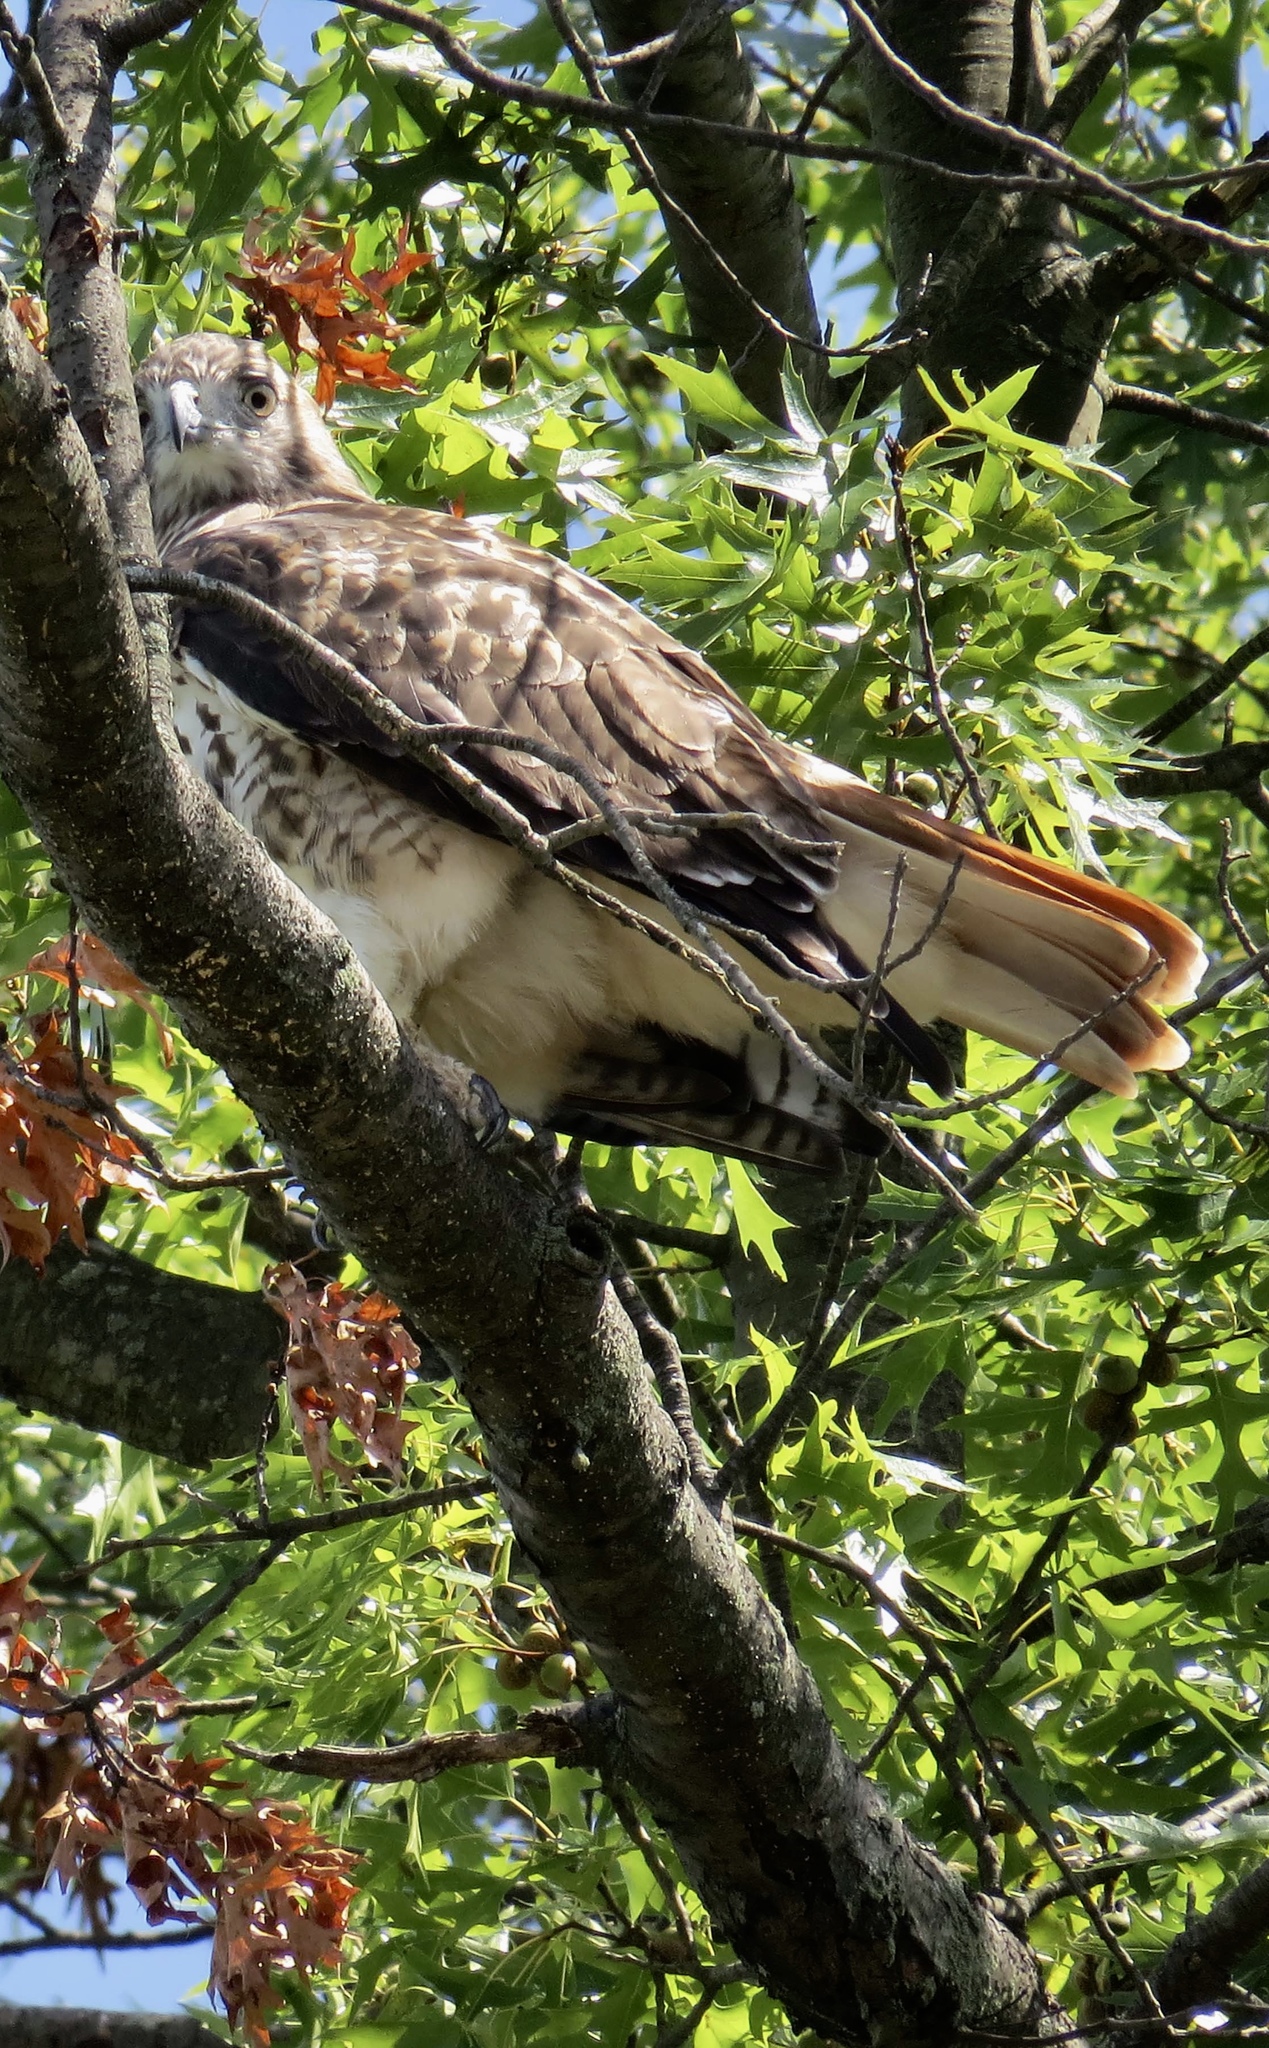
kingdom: Animalia
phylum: Chordata
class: Aves
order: Accipitriformes
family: Accipitridae
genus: Buteo
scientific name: Buteo jamaicensis
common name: Red-tailed hawk
